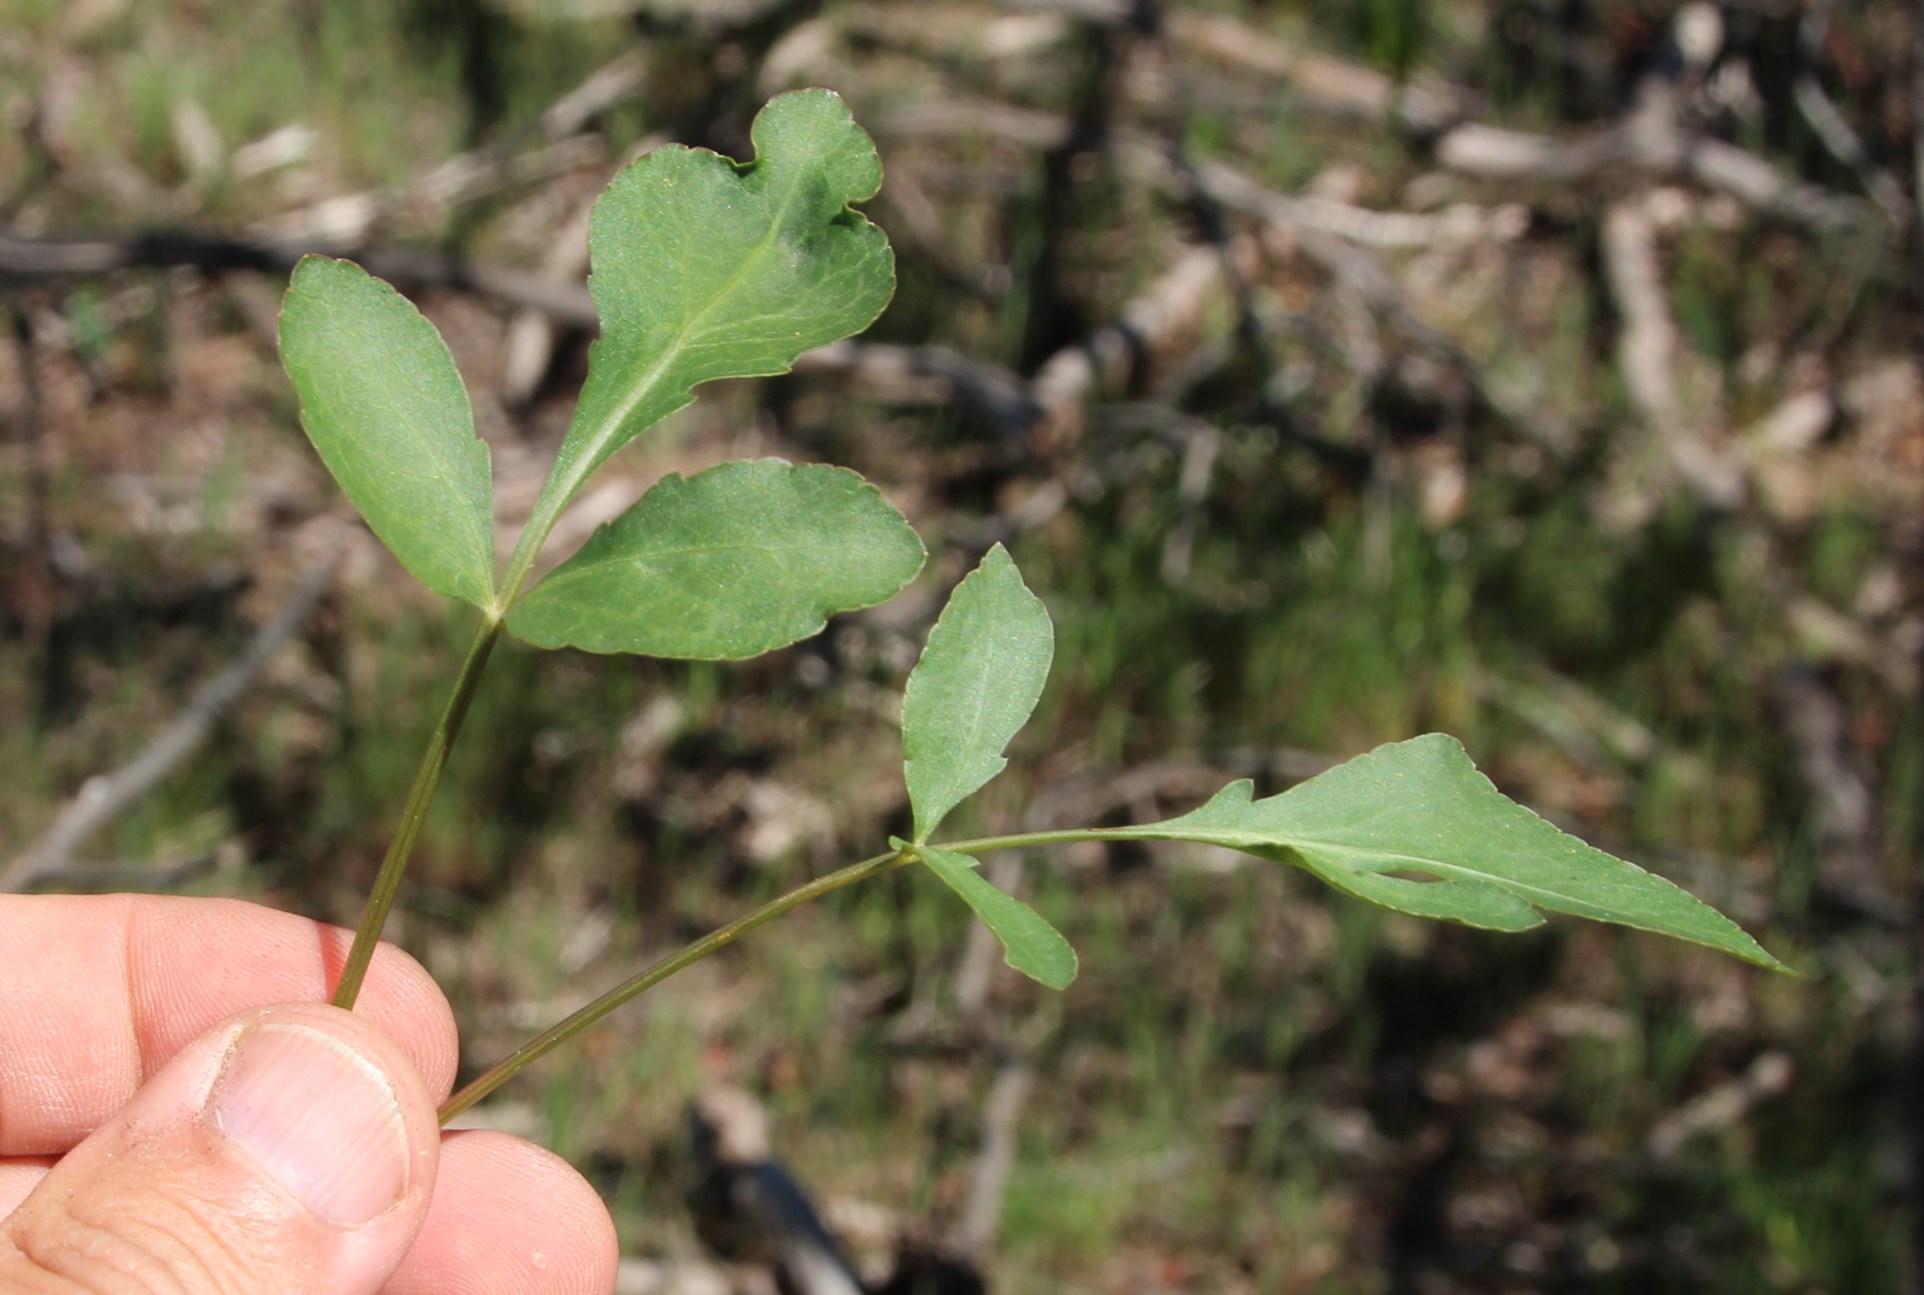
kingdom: Plantae
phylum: Tracheophyta
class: Magnoliopsida
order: Apiales
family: Apiaceae
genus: Lichtensteinia
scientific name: Lichtensteinia obscura
